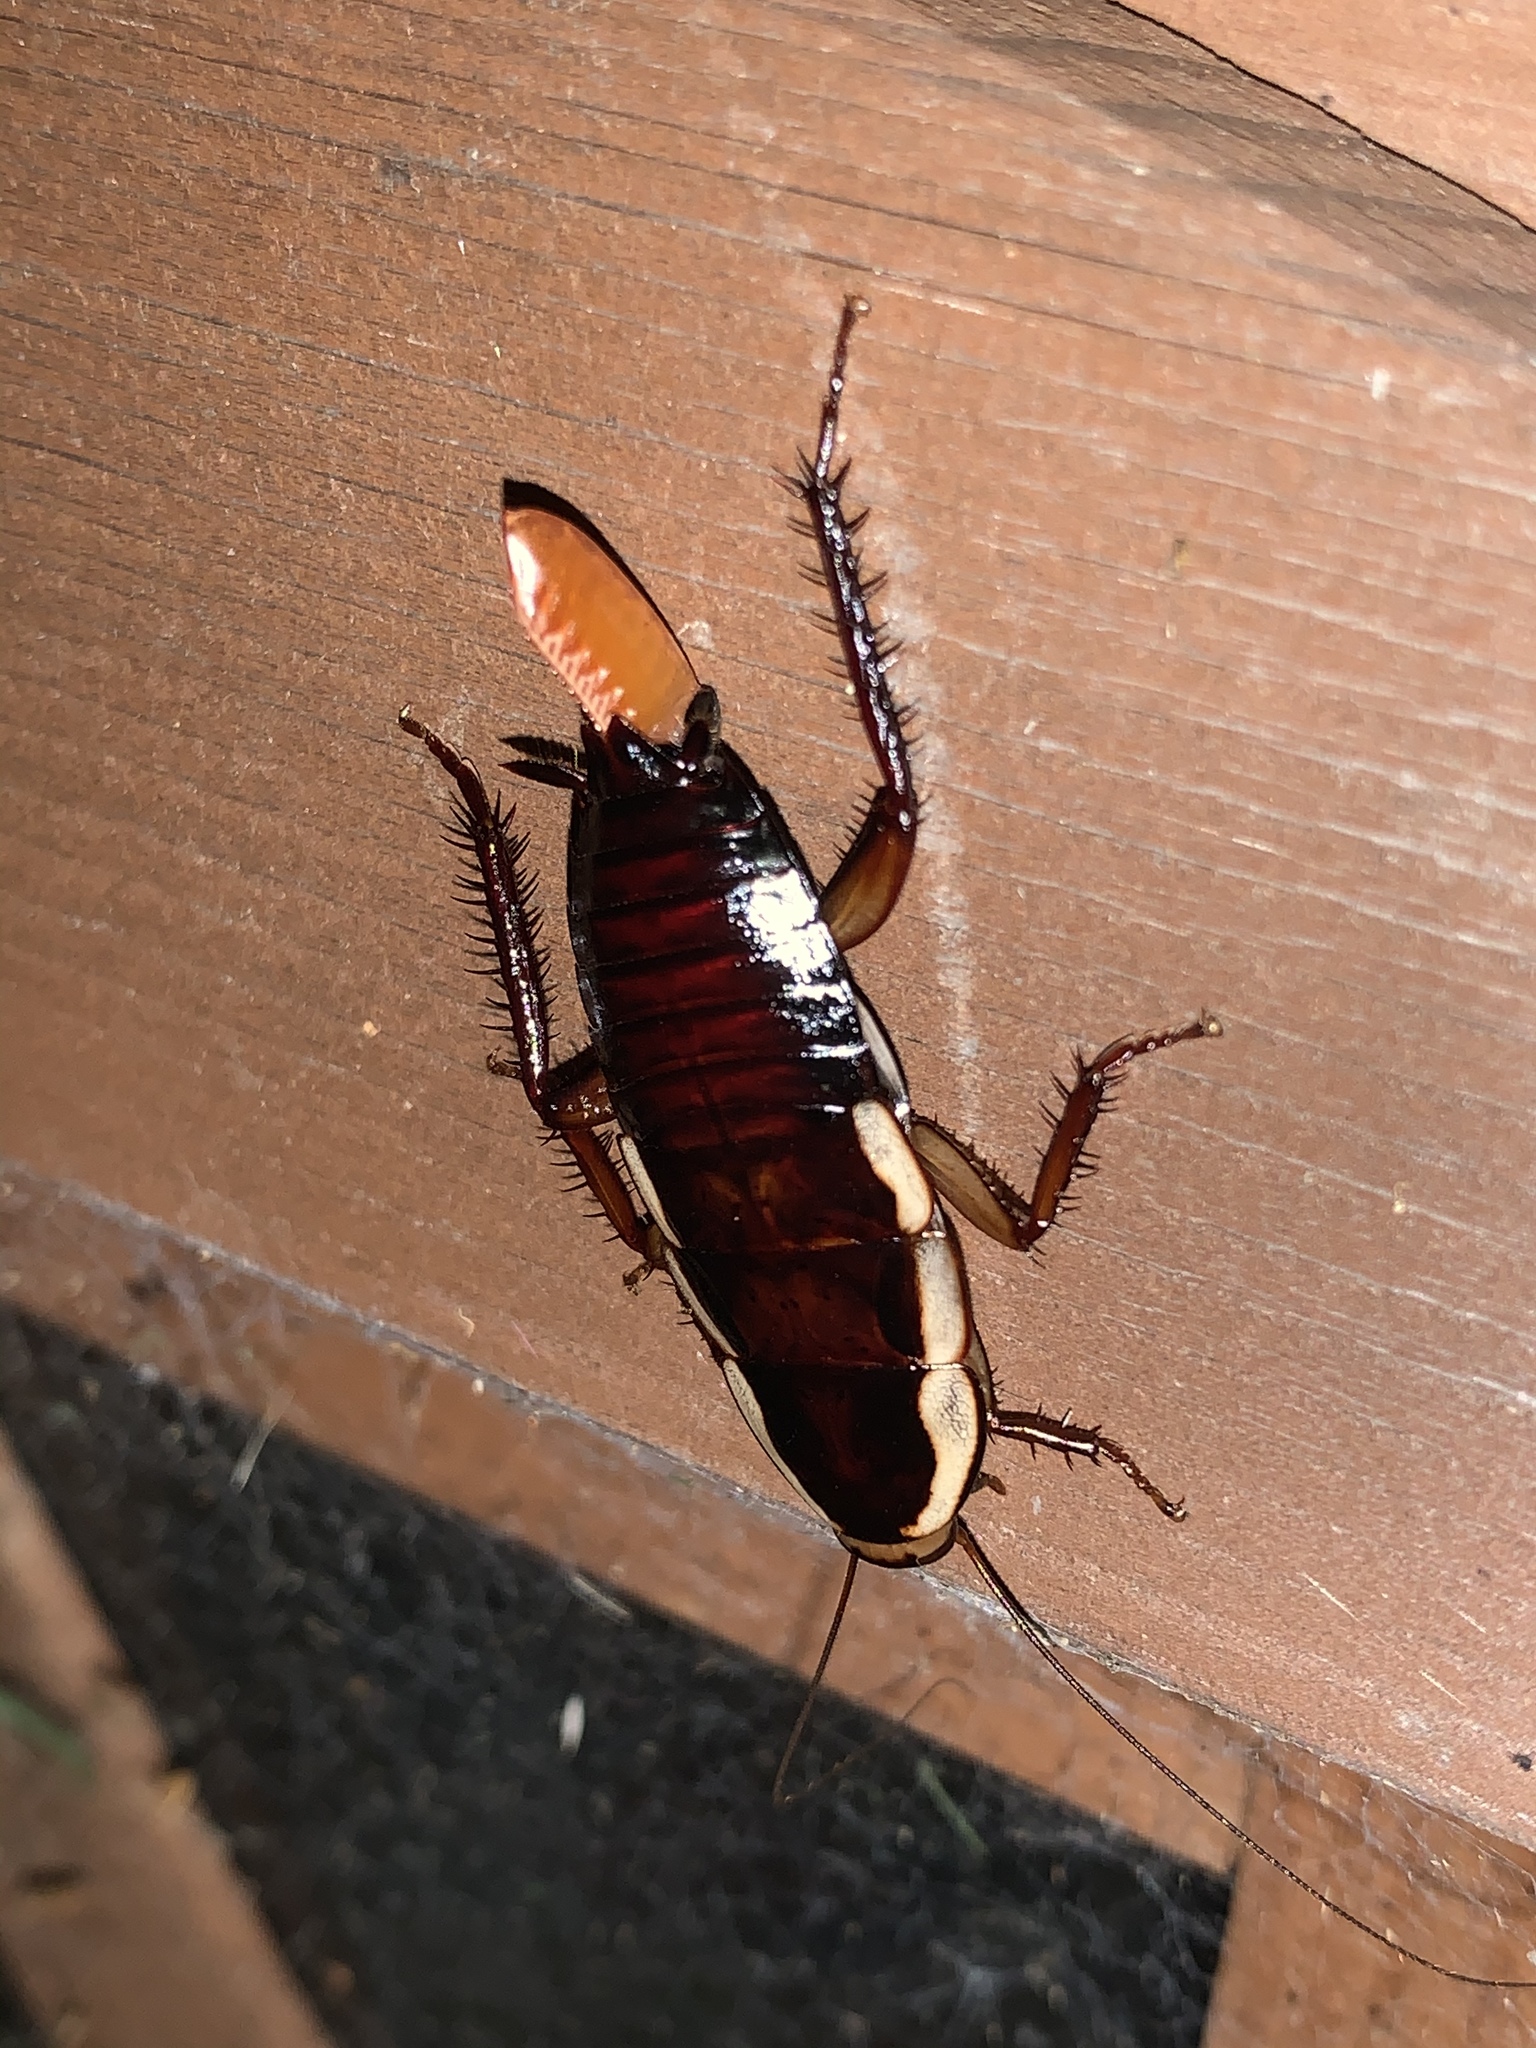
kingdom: Animalia
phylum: Arthropoda
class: Insecta
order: Blattodea
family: Blattidae
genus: Drymaplaneta
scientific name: Drymaplaneta semivitta
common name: Gisborne cockroach
